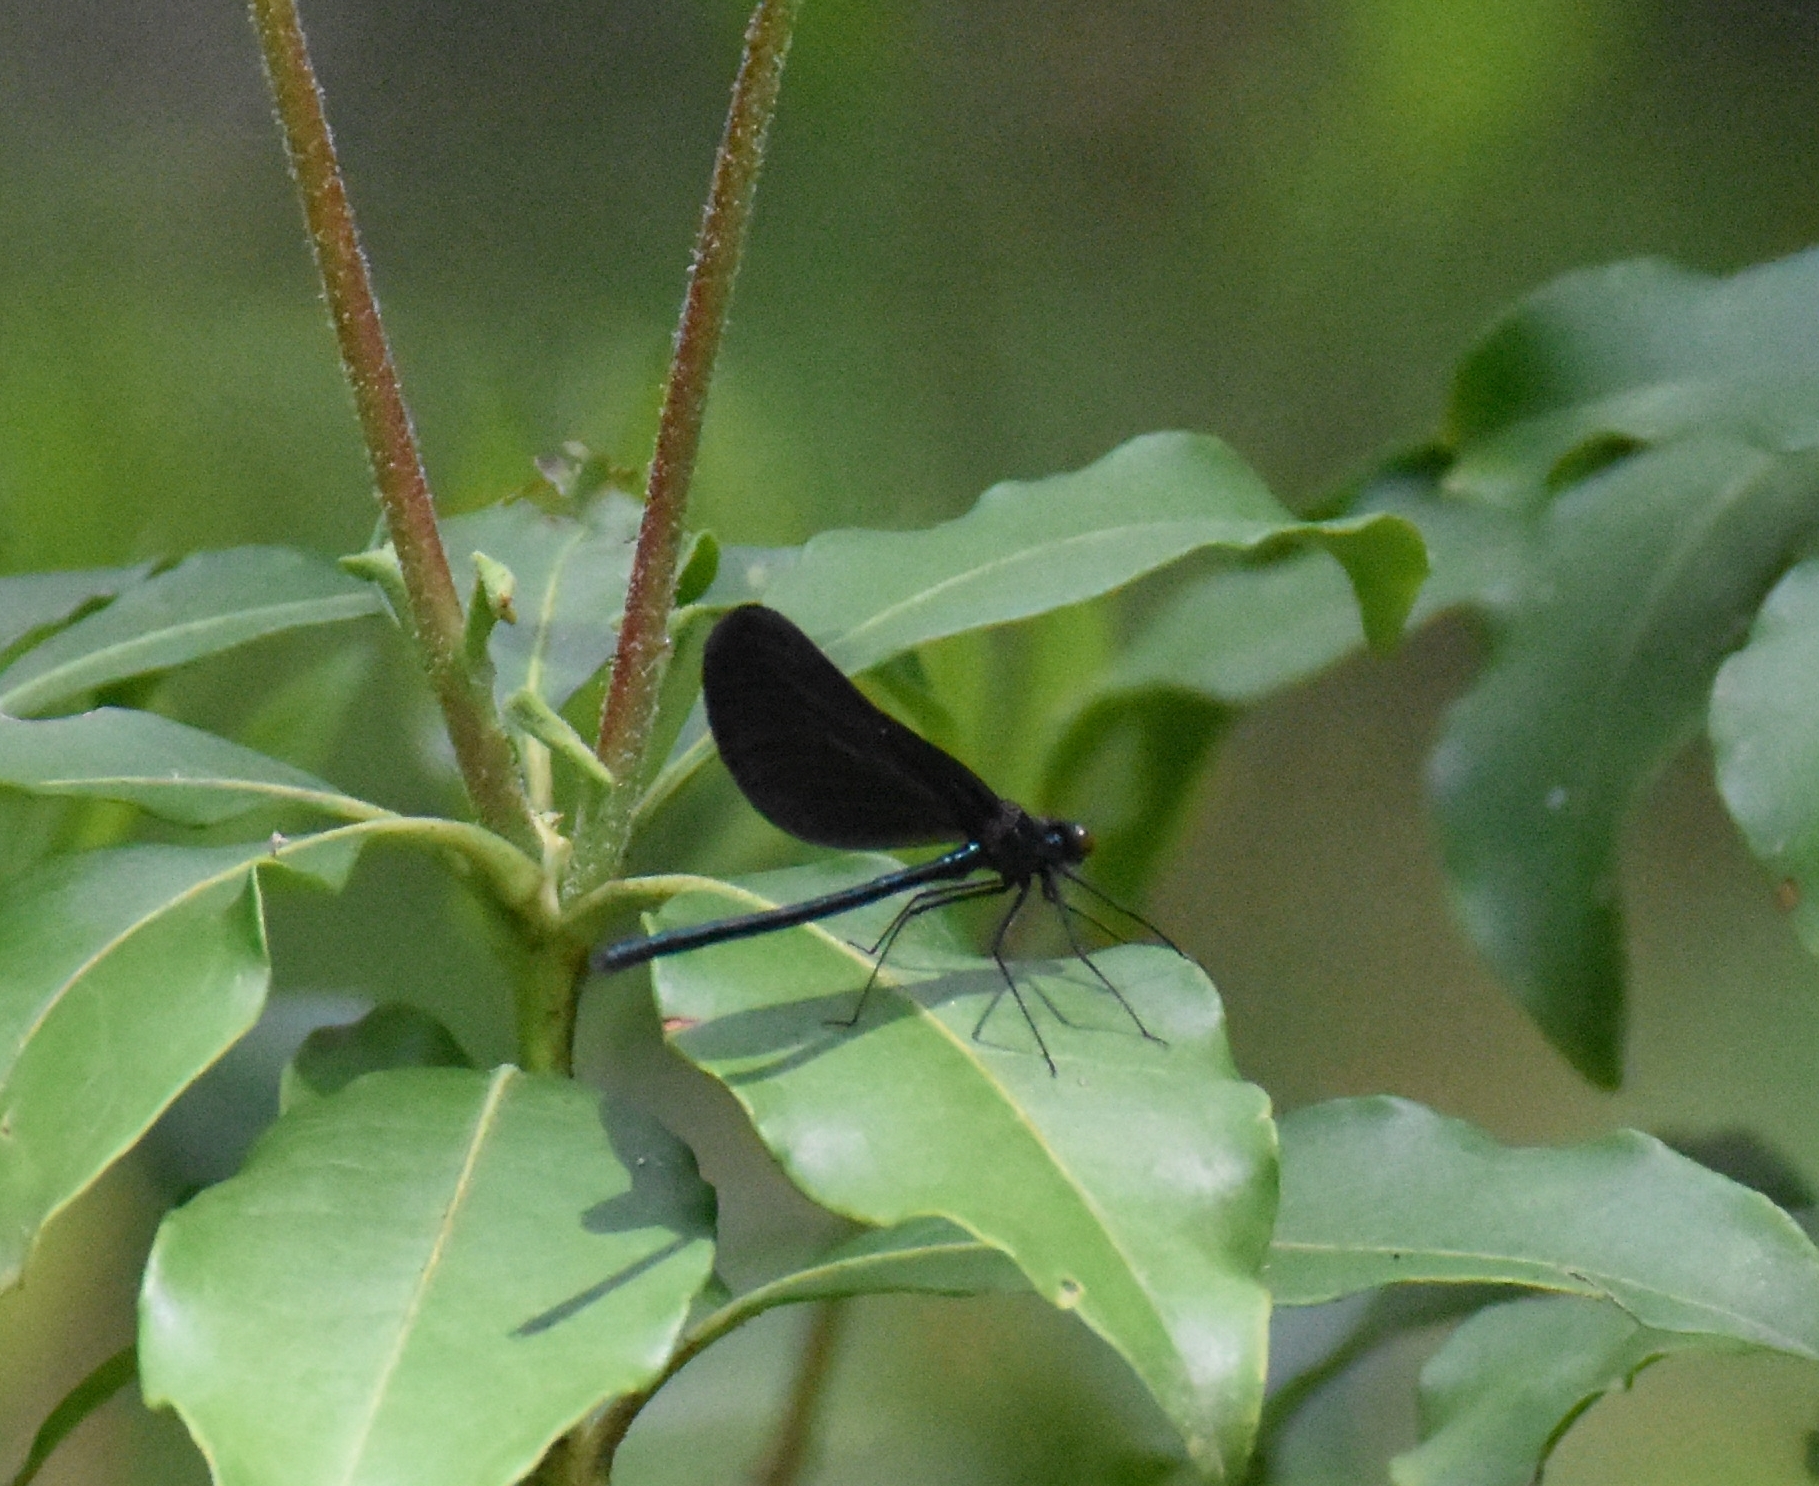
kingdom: Animalia
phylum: Arthropoda
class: Insecta
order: Odonata
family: Calopterygidae
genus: Calopteryx
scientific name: Calopteryx maculata
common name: Ebony jewelwing
